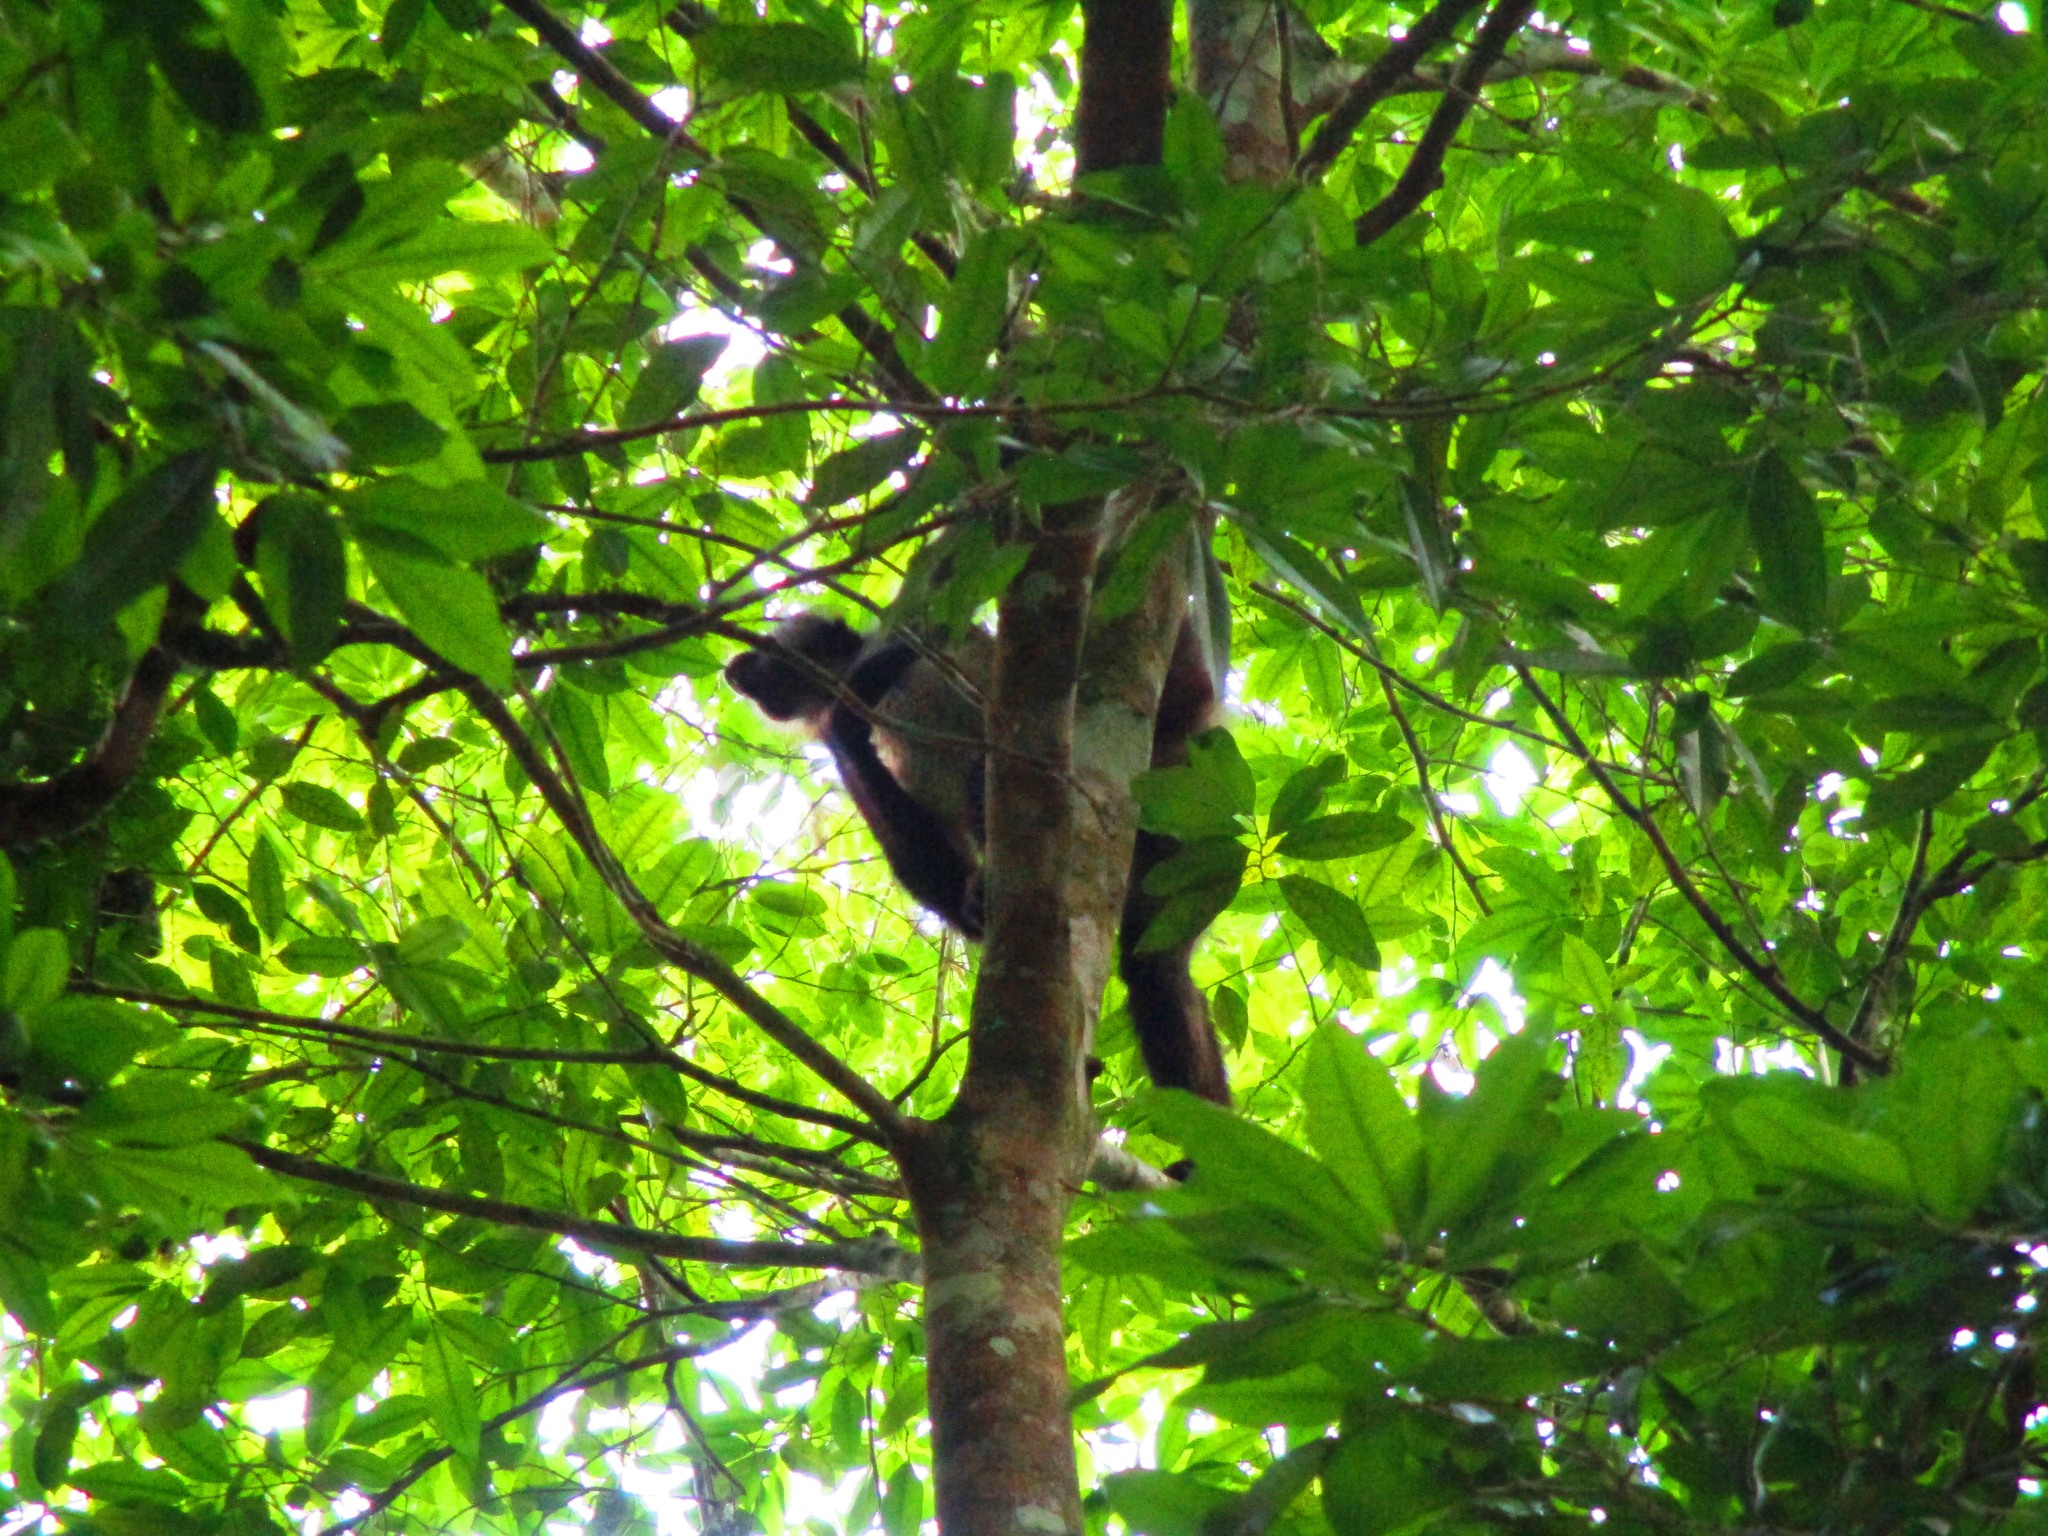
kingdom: Animalia
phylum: Chordata
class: Mammalia
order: Primates
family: Atelidae
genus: Ateles
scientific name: Ateles geoffroyi
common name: Black-handed spider monkey
